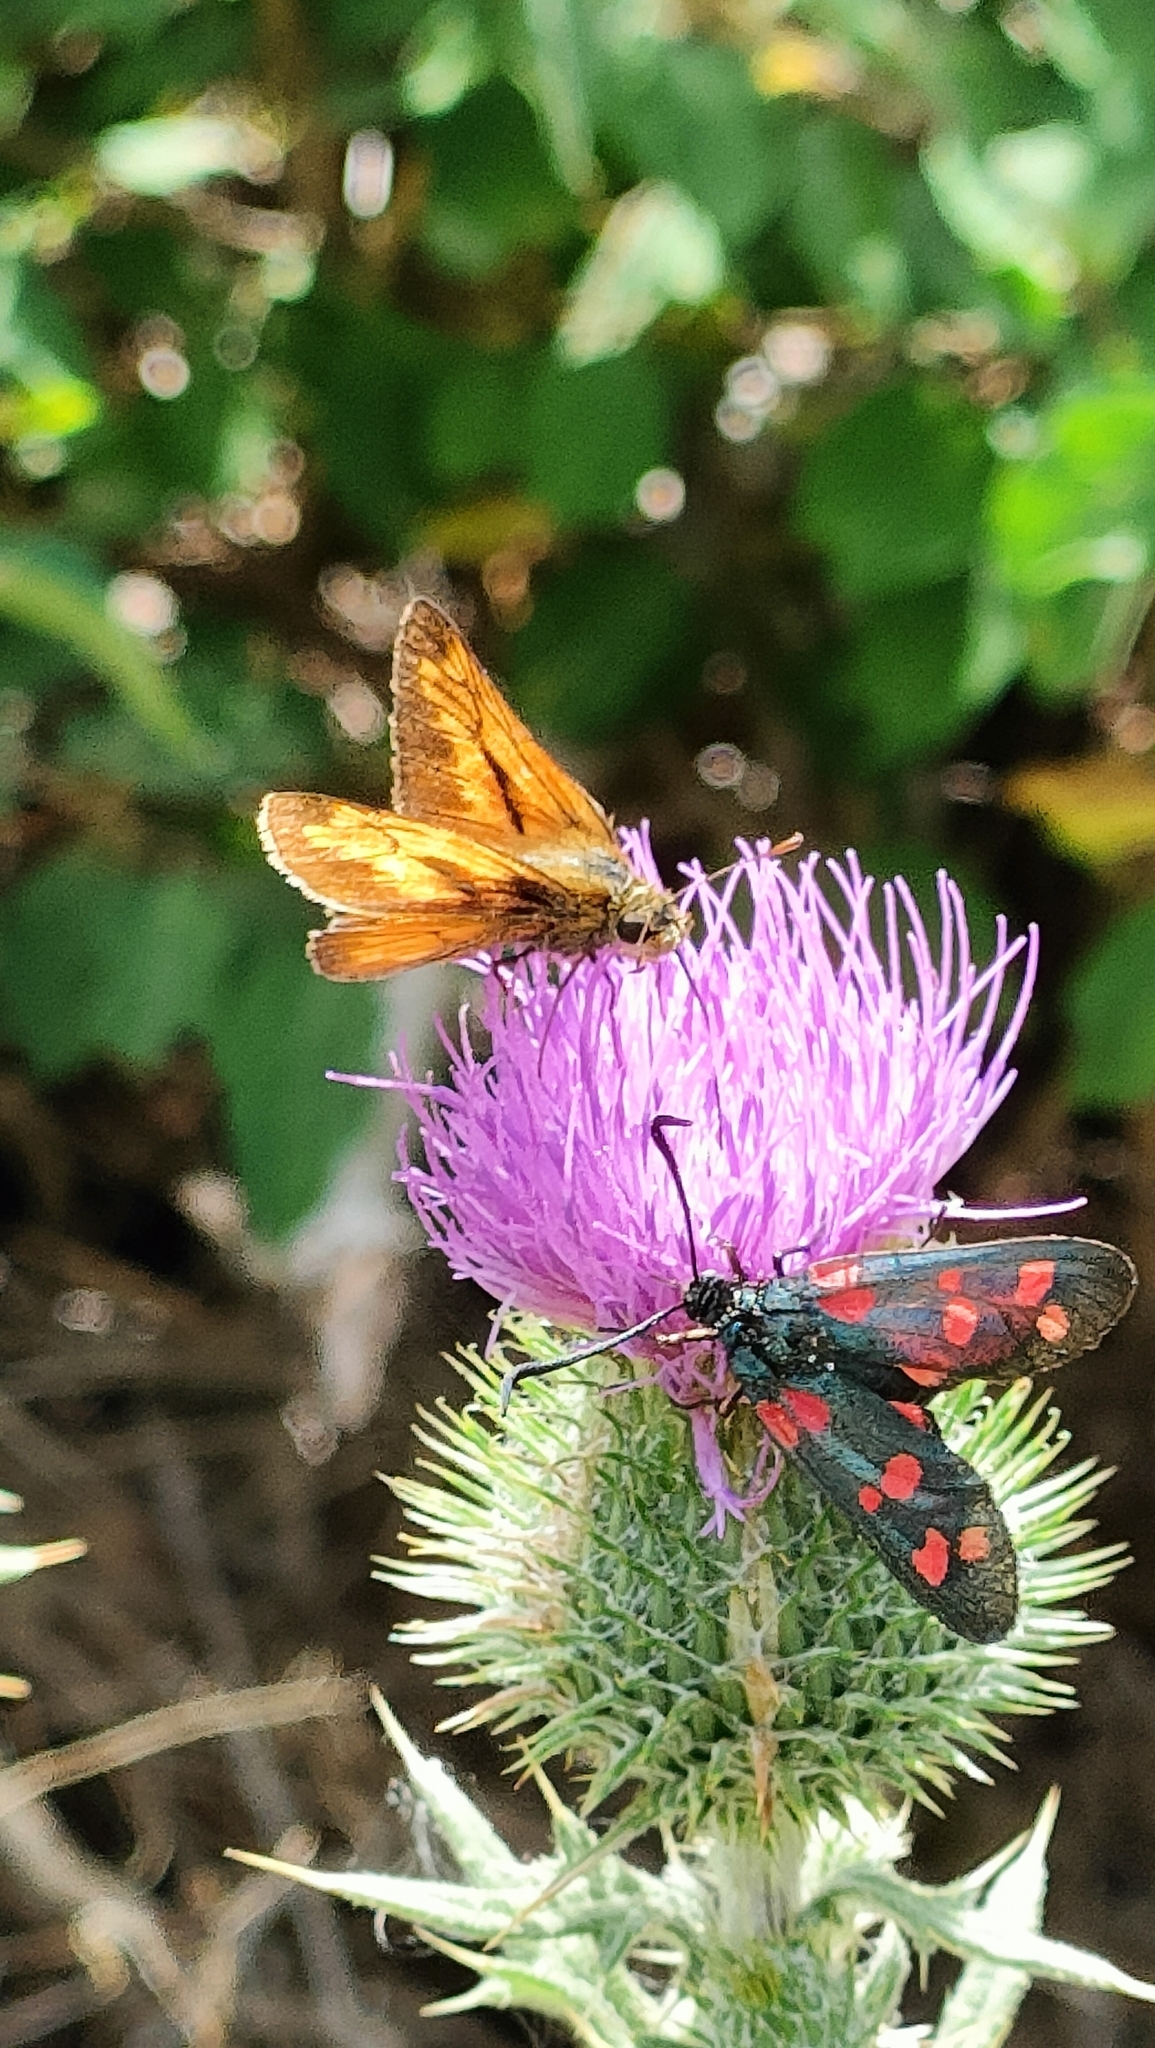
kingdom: Animalia
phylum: Arthropoda
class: Insecta
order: Lepidoptera
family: Hesperiidae
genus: Ochlodes
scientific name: Ochlodes venata
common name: Large skipper
